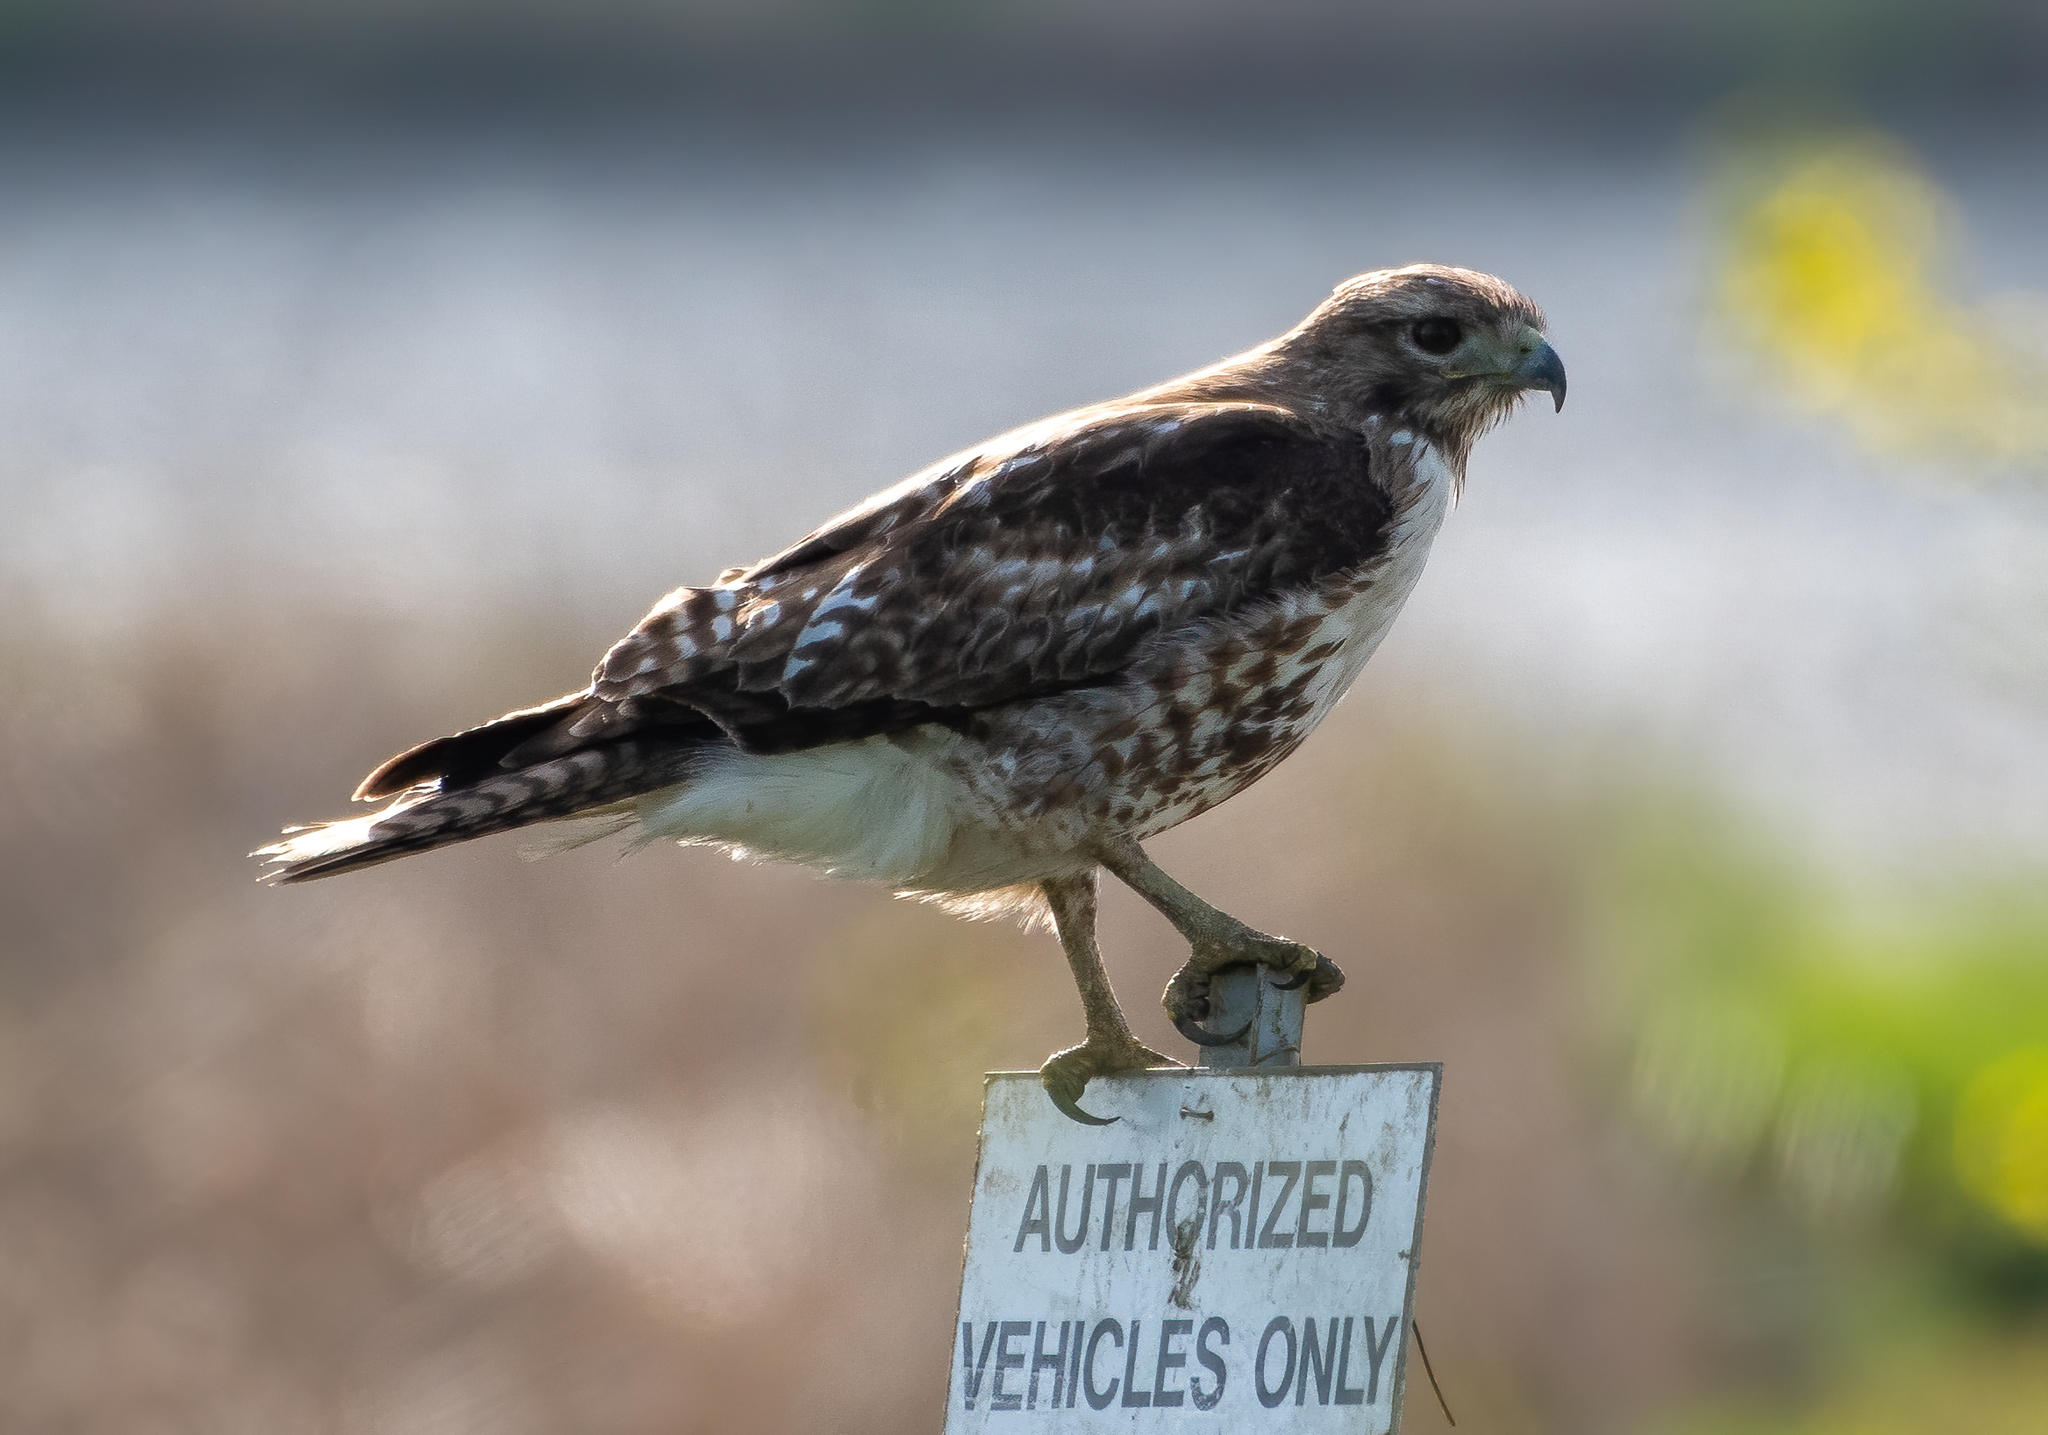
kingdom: Animalia
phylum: Chordata
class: Aves
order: Accipitriformes
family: Accipitridae
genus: Buteo
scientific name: Buteo jamaicensis
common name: Red-tailed hawk
